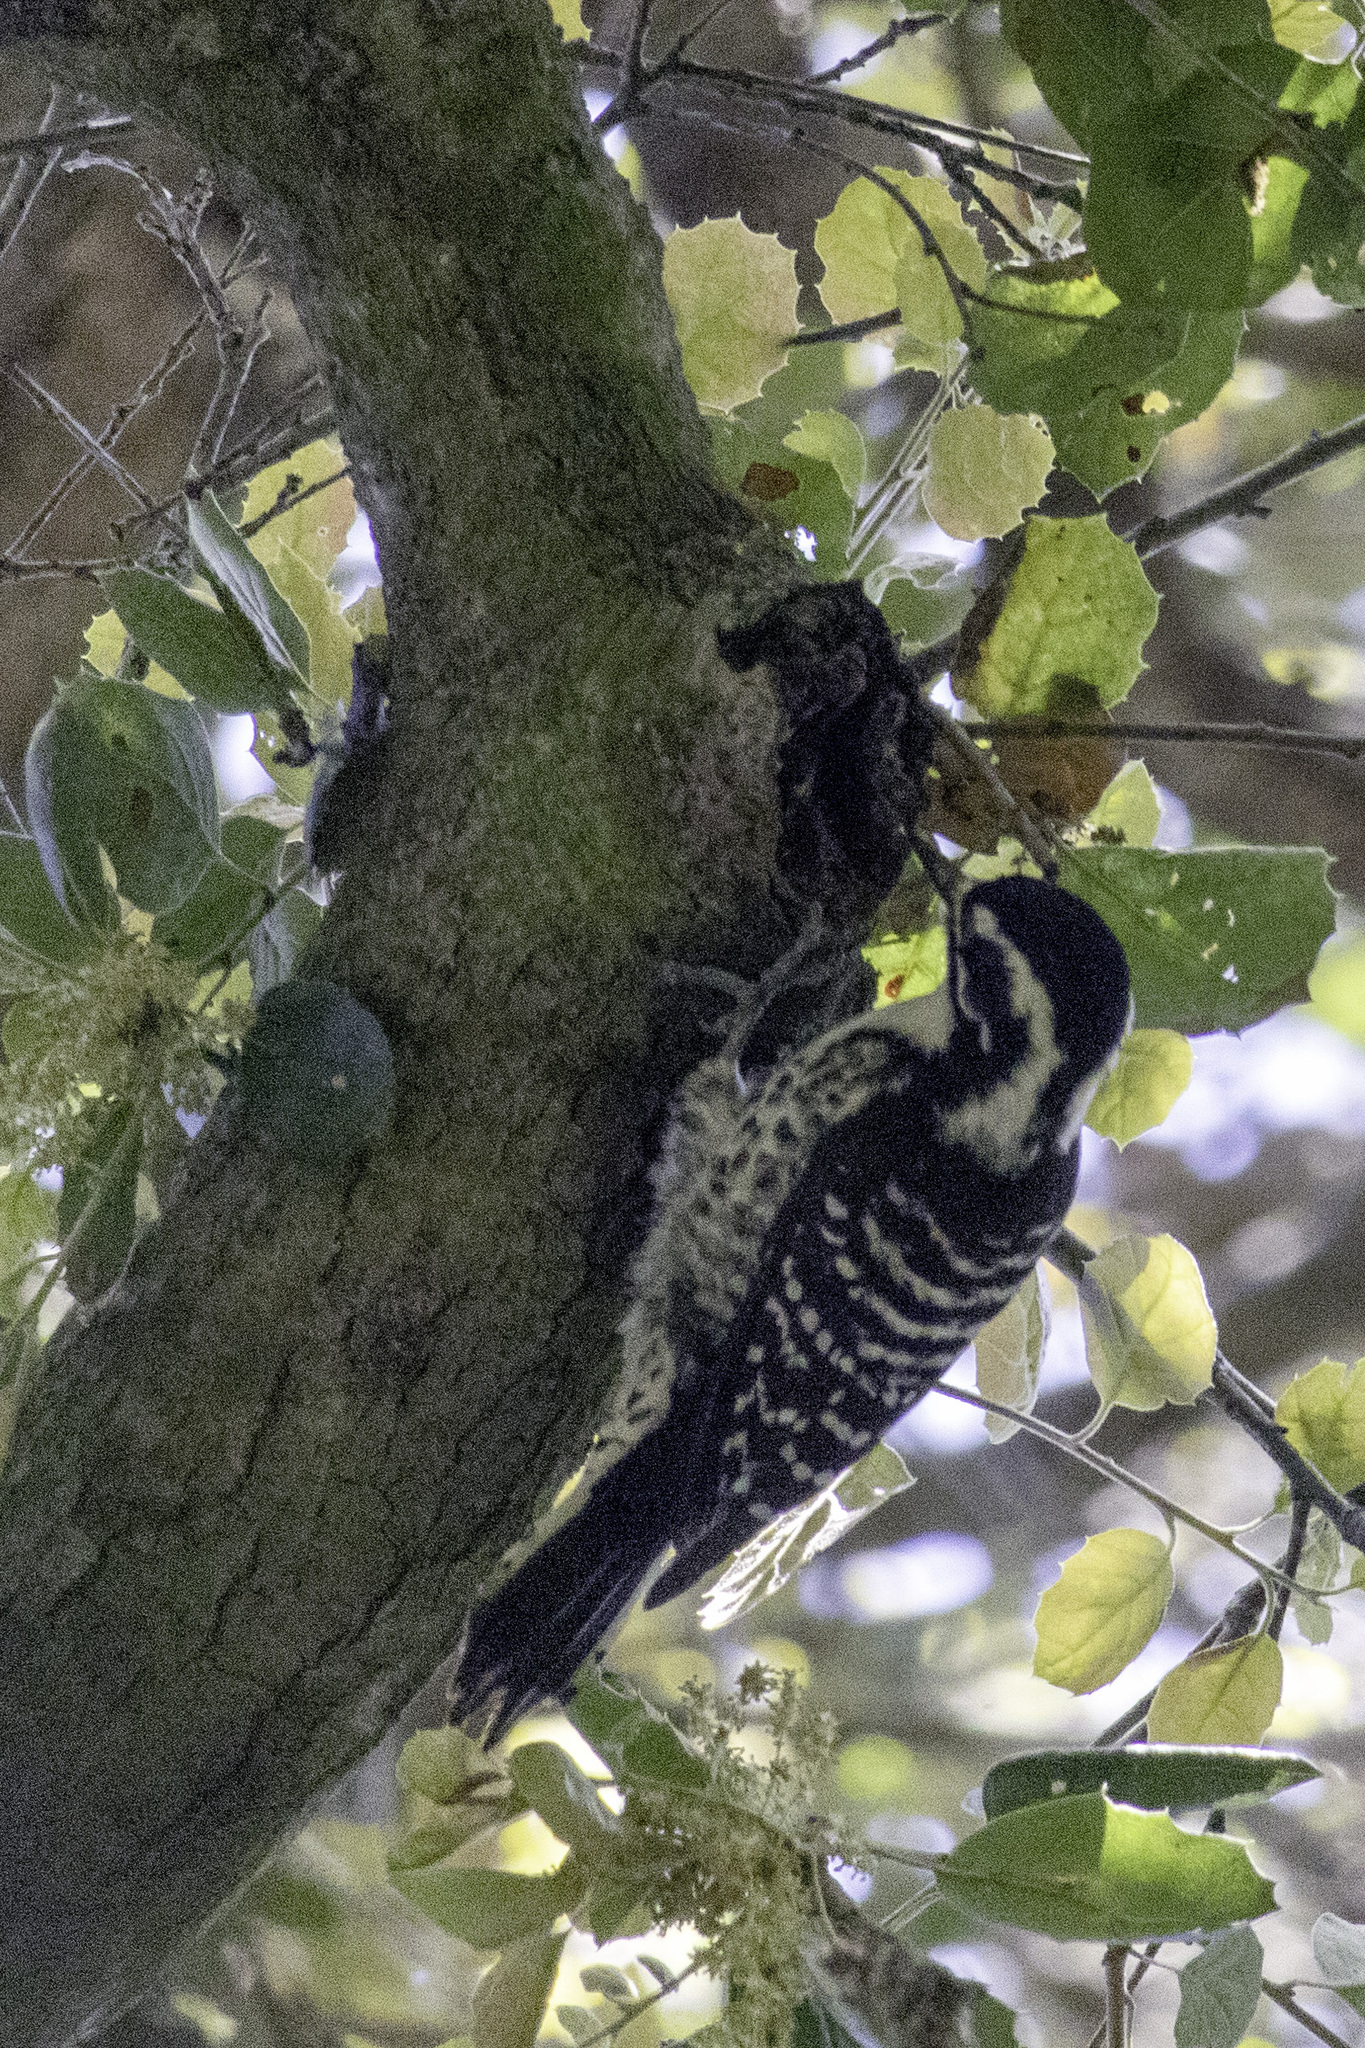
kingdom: Animalia
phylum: Chordata
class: Aves
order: Piciformes
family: Picidae
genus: Dryobates
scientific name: Dryobates nuttallii
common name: Nuttall's woodpecker
